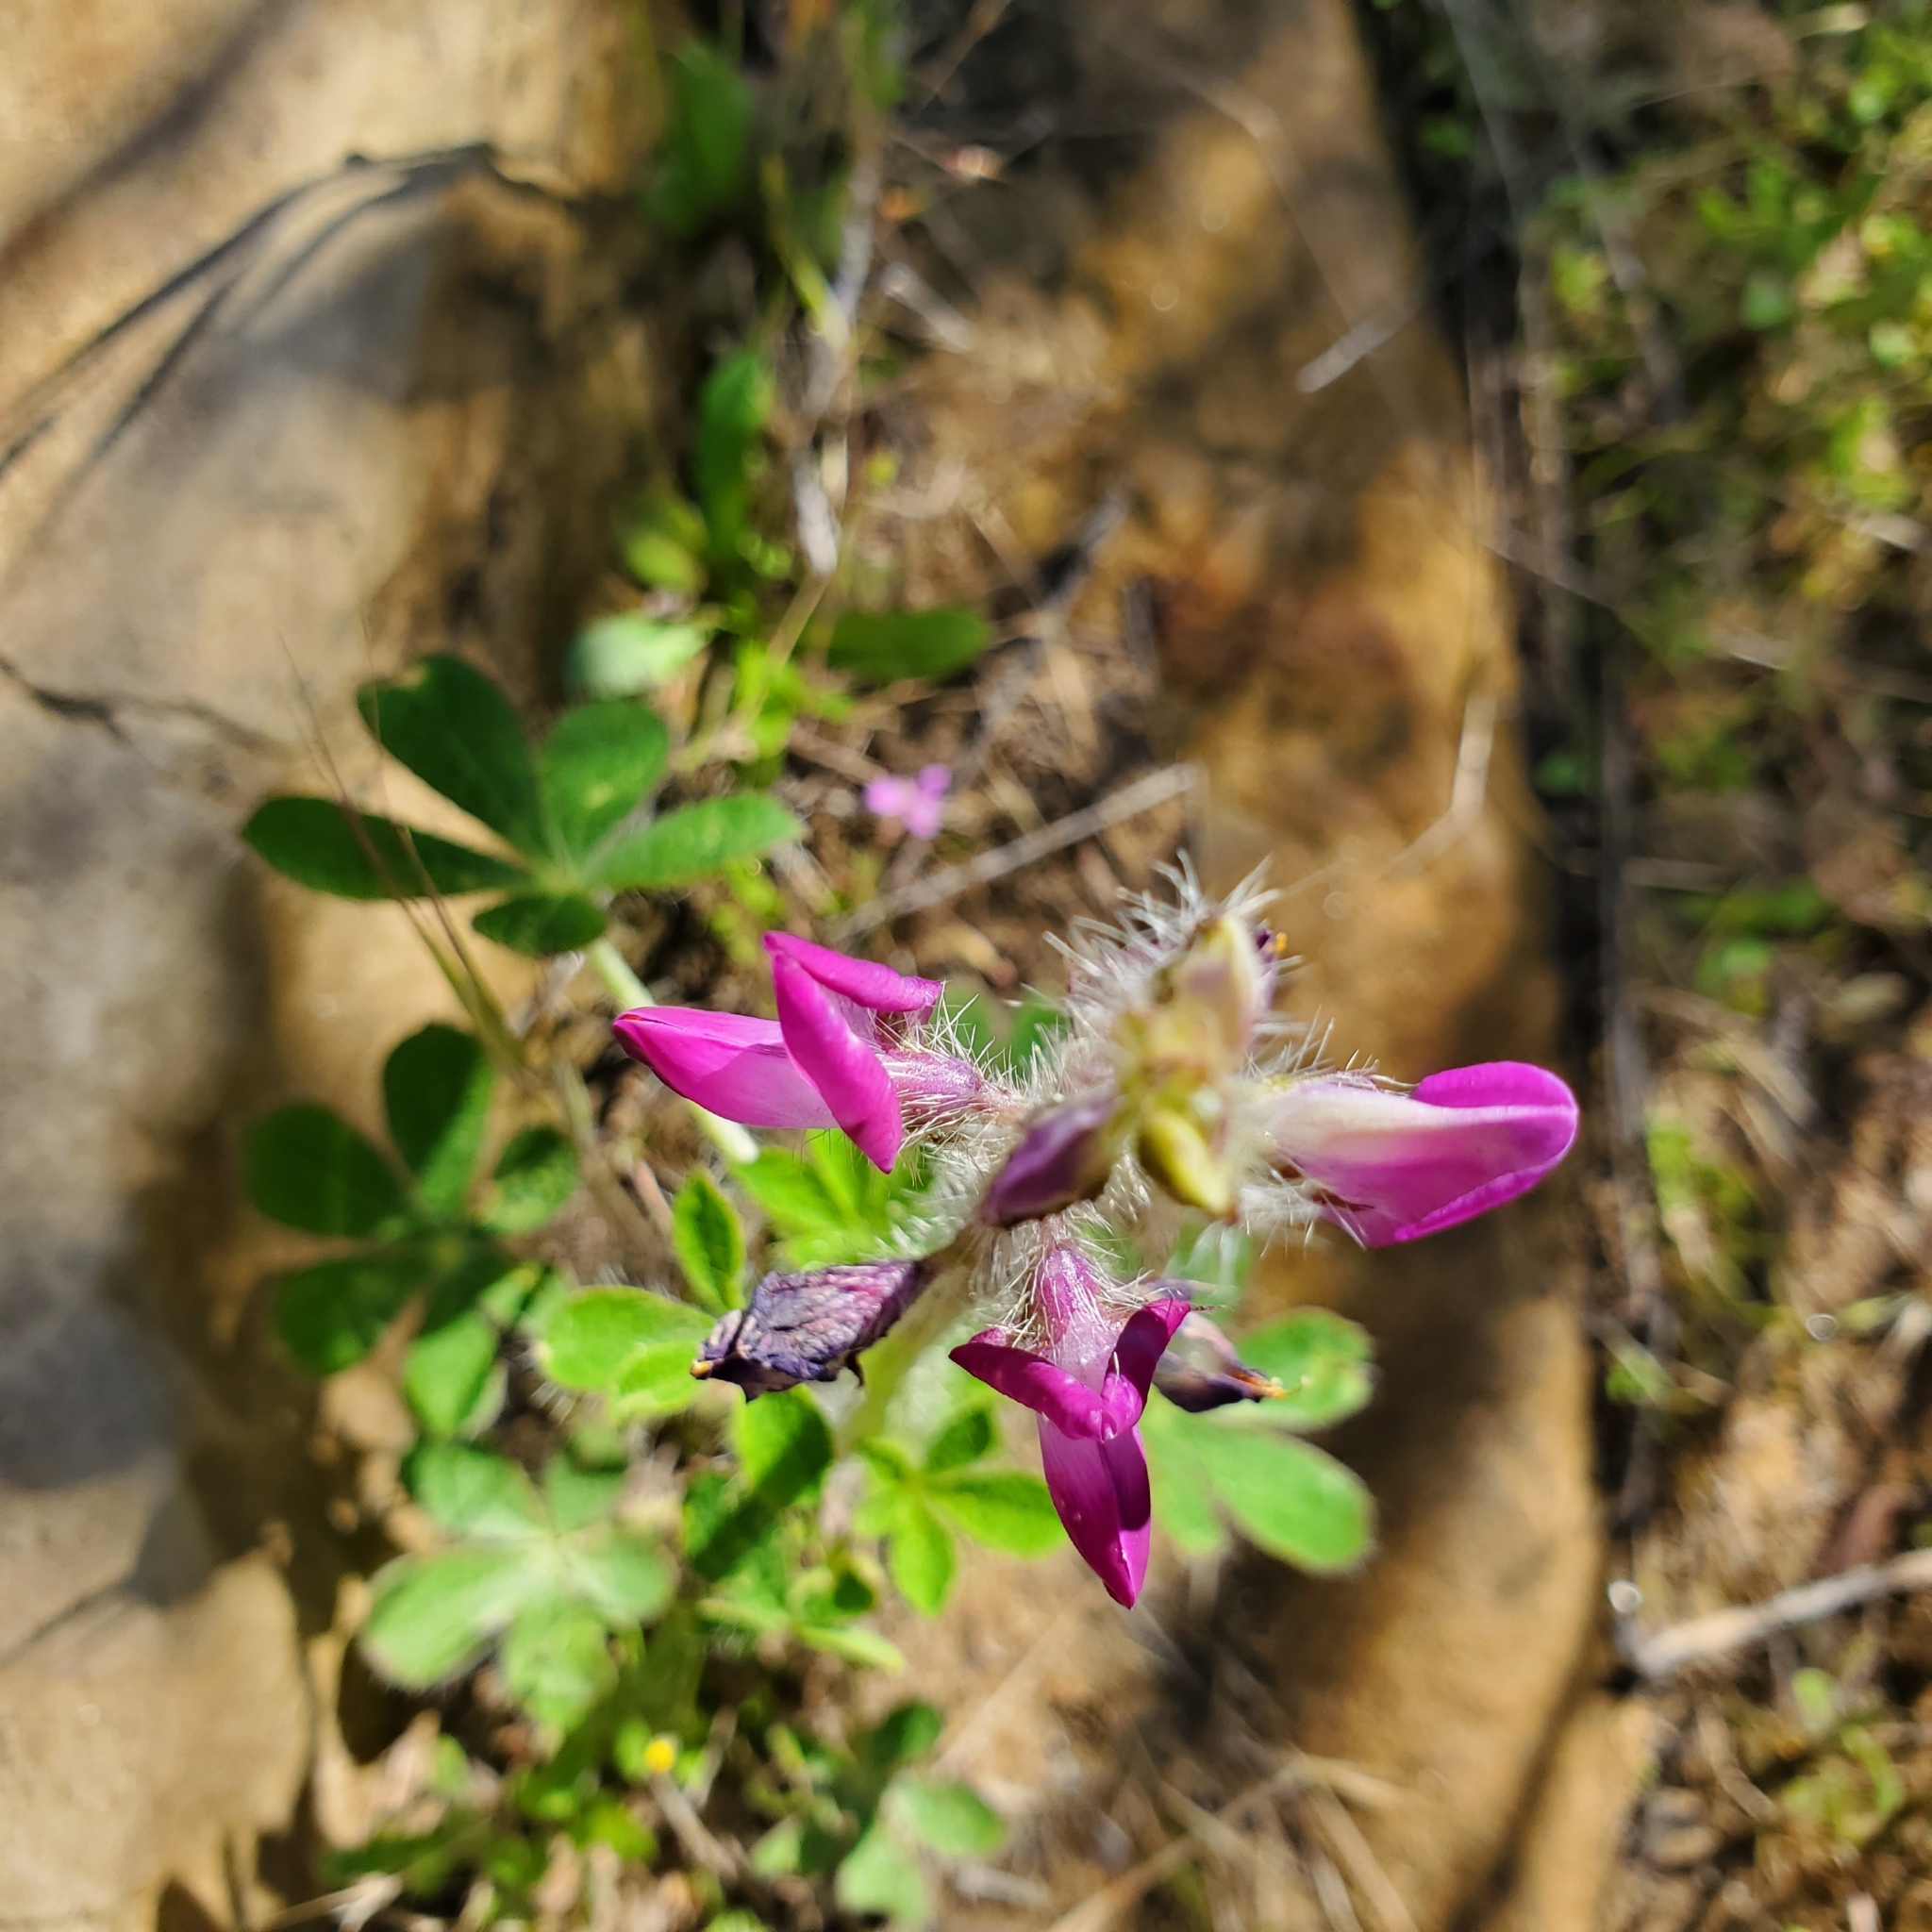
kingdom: Plantae
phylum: Tracheophyta
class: Magnoliopsida
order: Fabales
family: Fabaceae
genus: Lupinus
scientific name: Lupinus hirsutissimus
